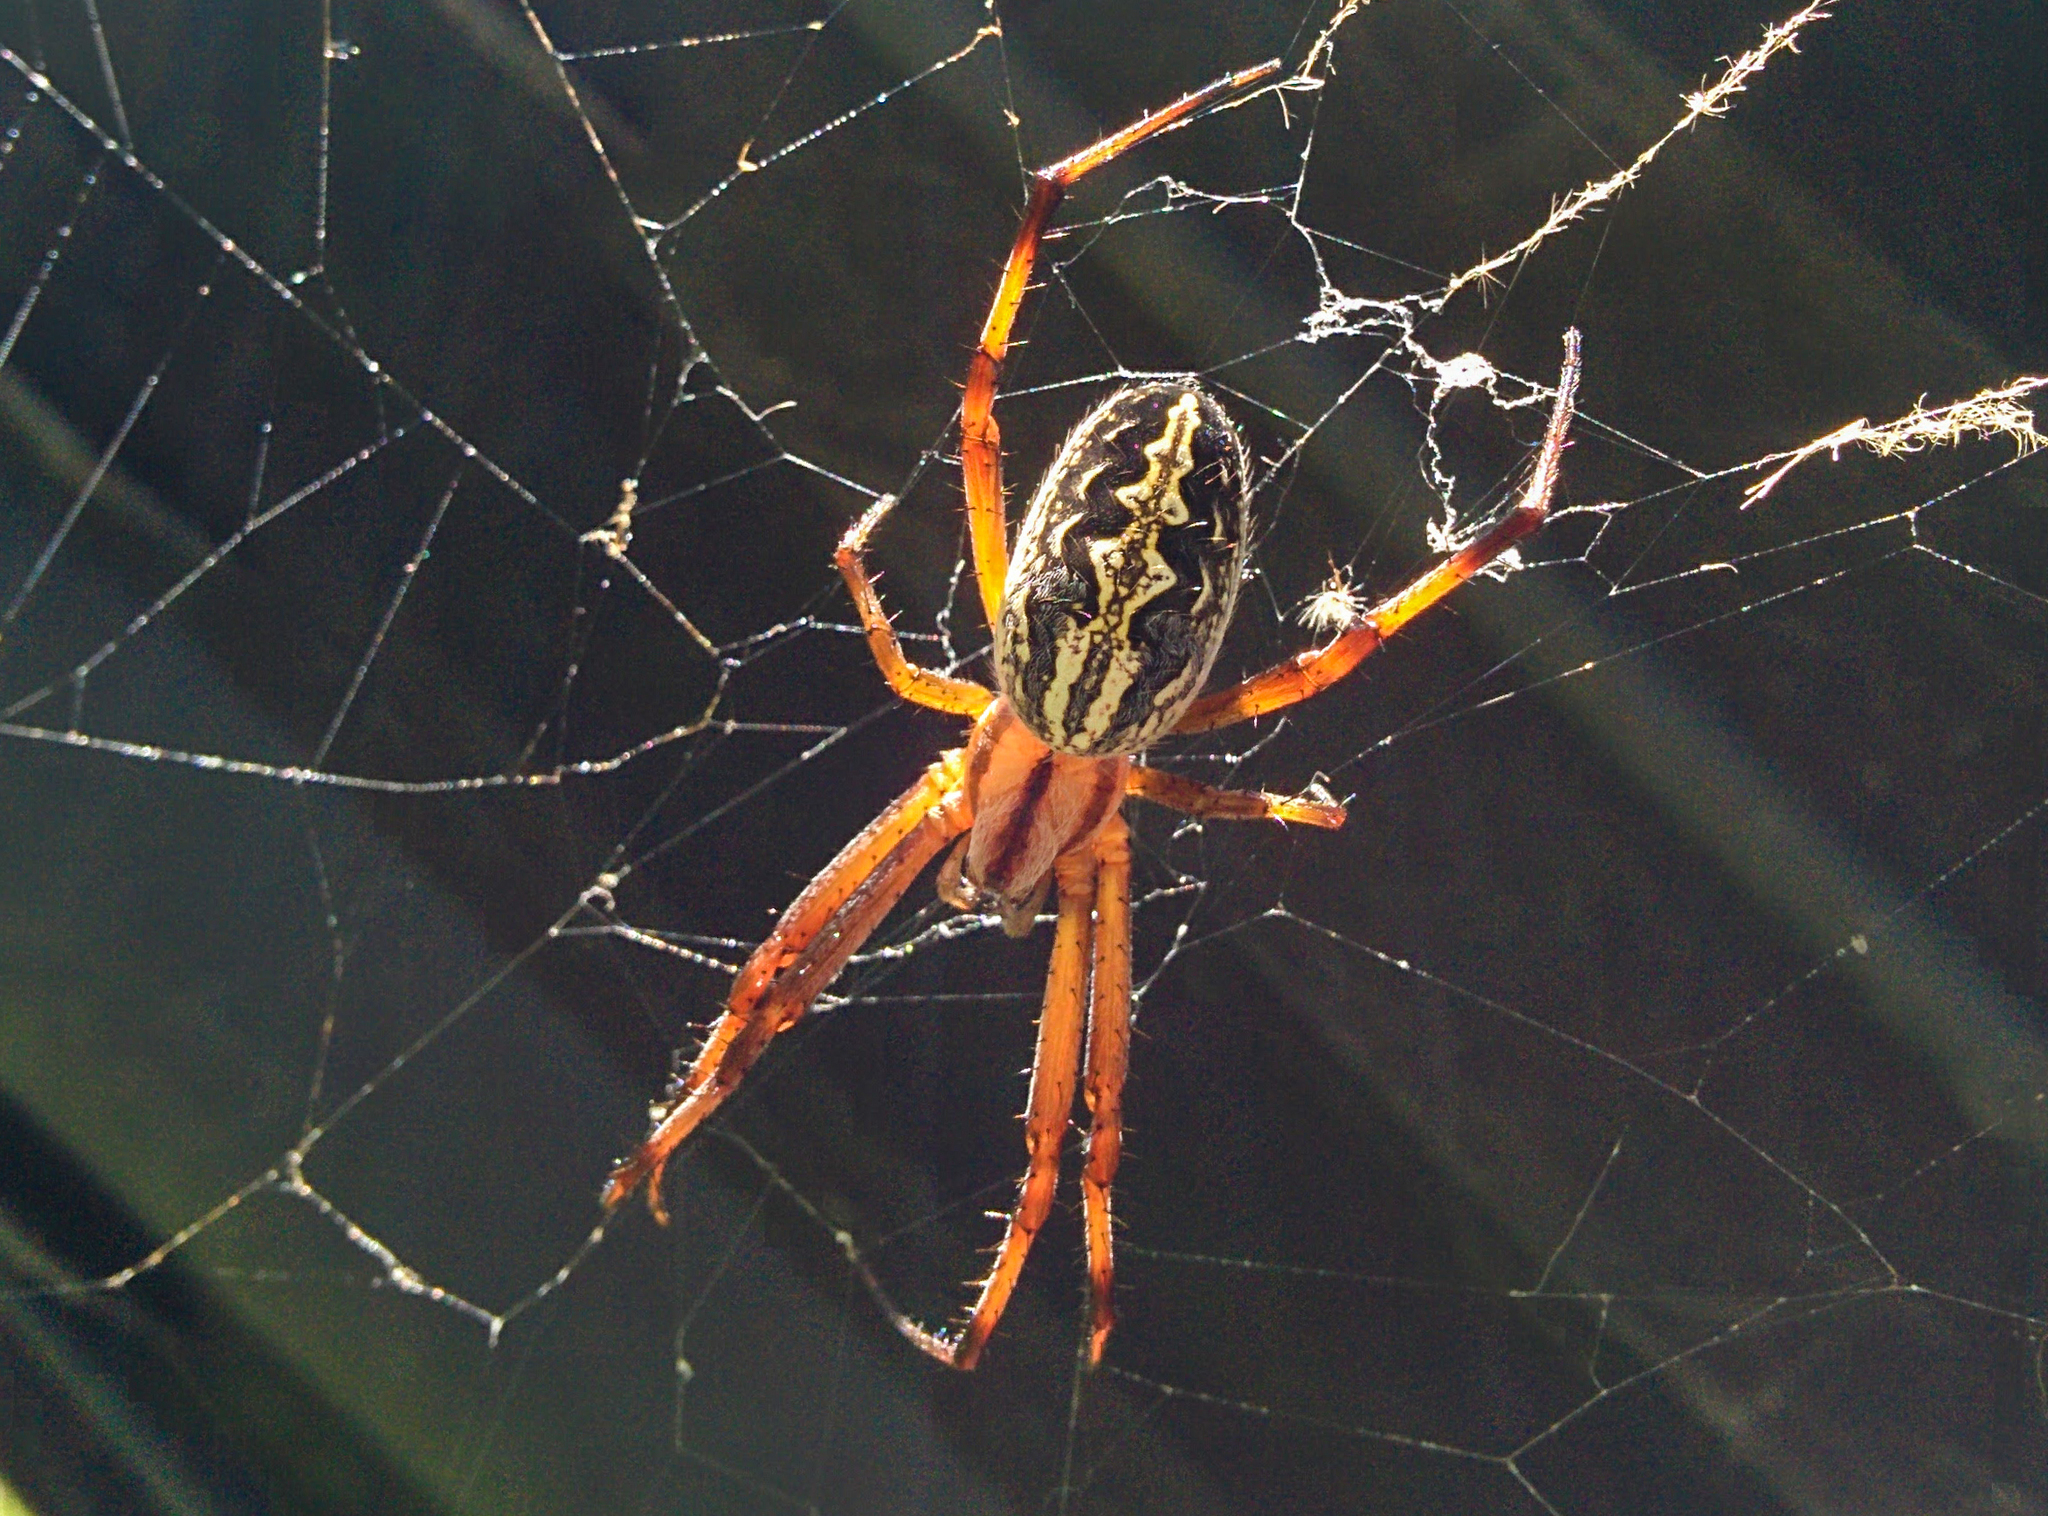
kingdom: Animalia
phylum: Arthropoda
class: Arachnida
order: Araneae
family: Araneidae
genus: Neoscona
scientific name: Neoscona oaxacensis
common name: Orb weavers
